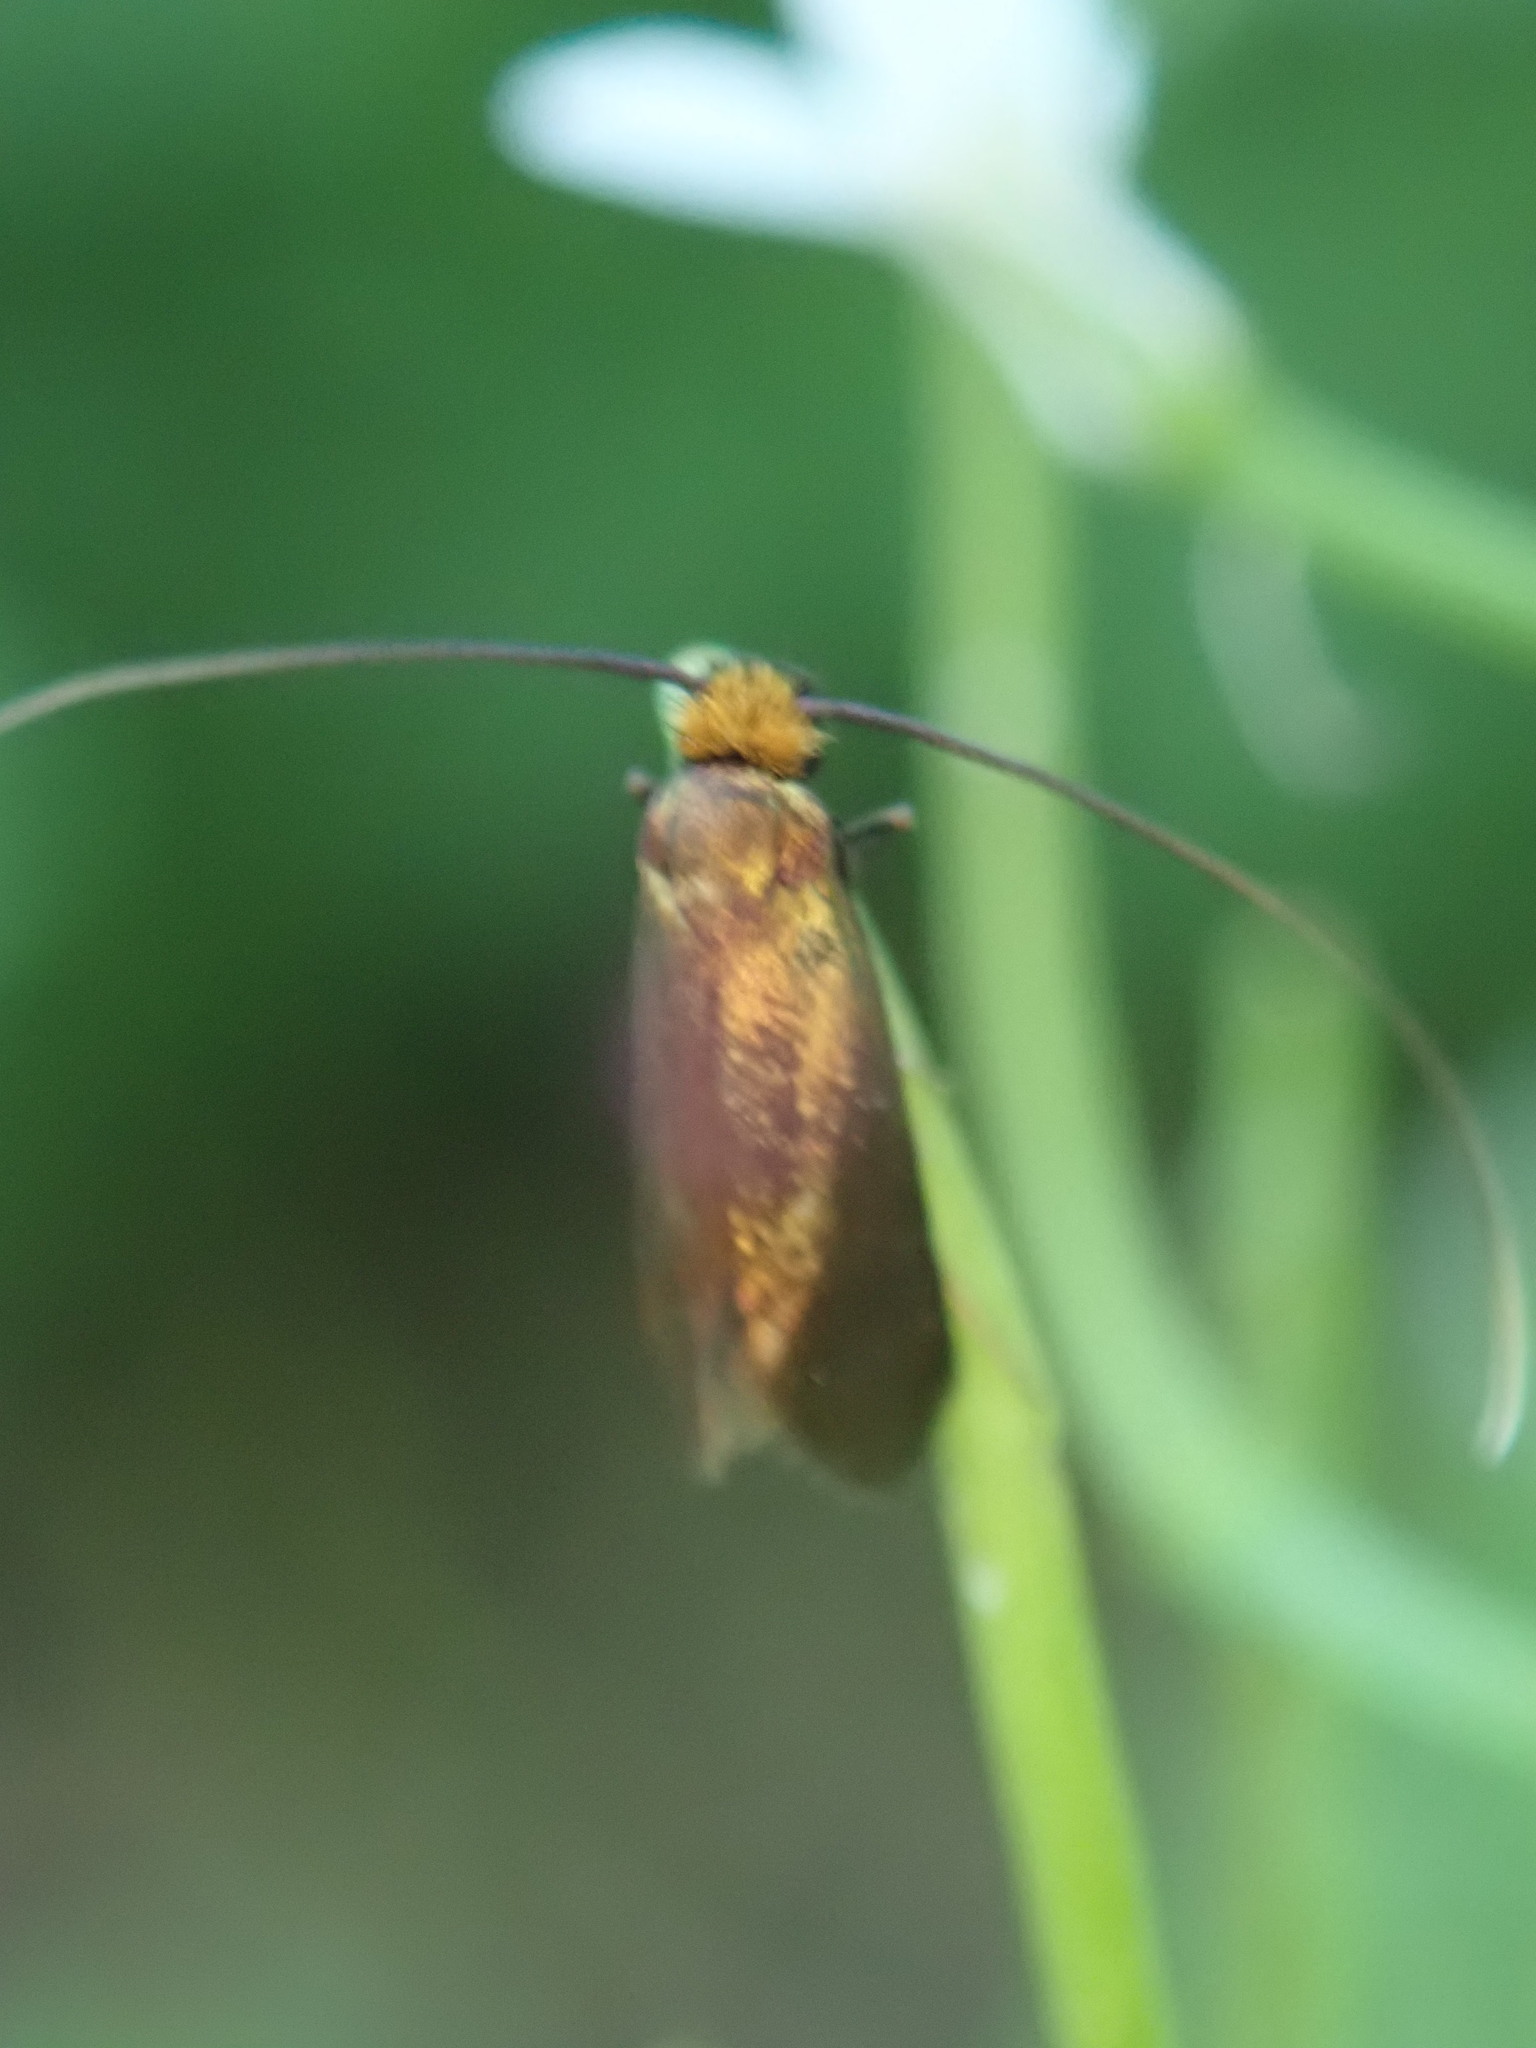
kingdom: Animalia
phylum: Arthropoda
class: Insecta
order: Lepidoptera
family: Adelidae
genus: Cauchas
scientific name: Cauchas rufimitrella
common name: Meadow long-horn
